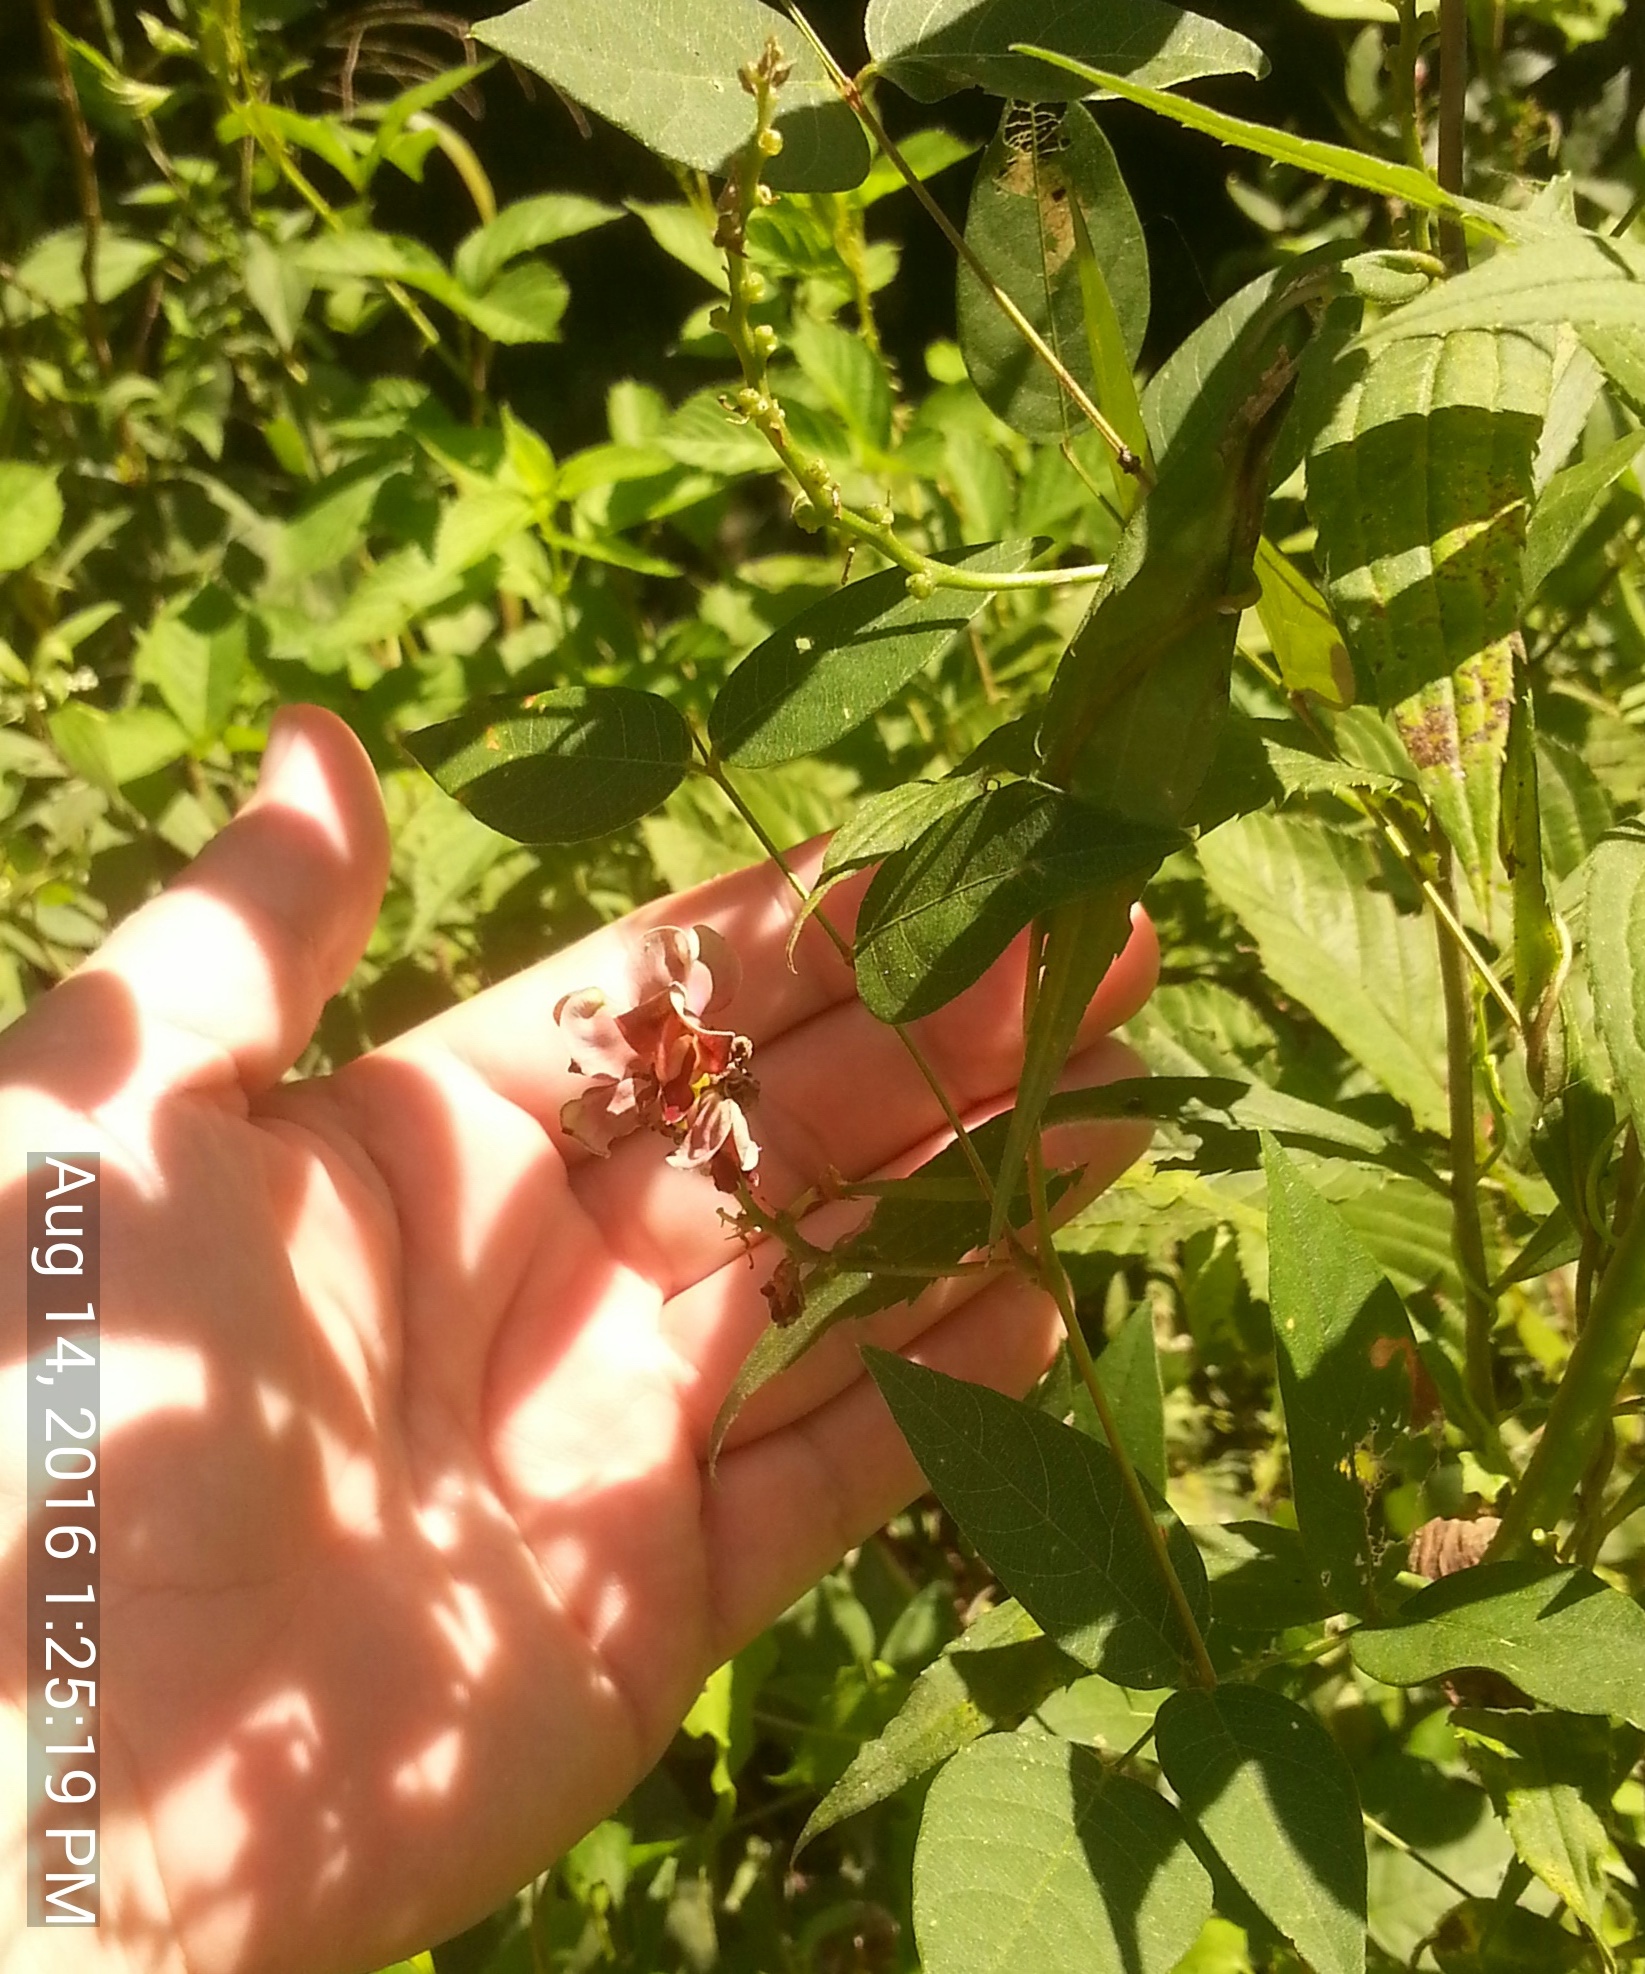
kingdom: Plantae
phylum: Tracheophyta
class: Magnoliopsida
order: Fabales
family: Fabaceae
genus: Apios
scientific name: Apios americana
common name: American potato-bean
